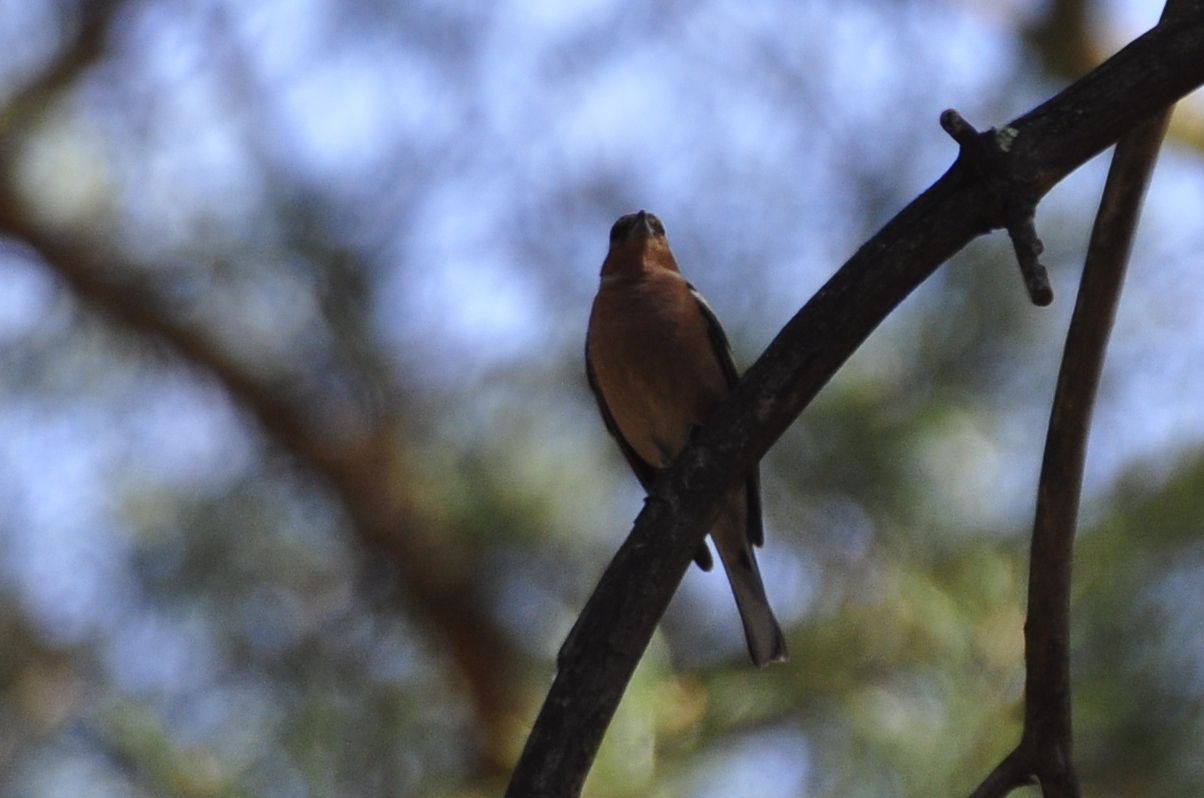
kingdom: Animalia
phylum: Chordata
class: Aves
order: Passeriformes
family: Fringillidae
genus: Fringilla
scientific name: Fringilla coelebs
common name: Common chaffinch
